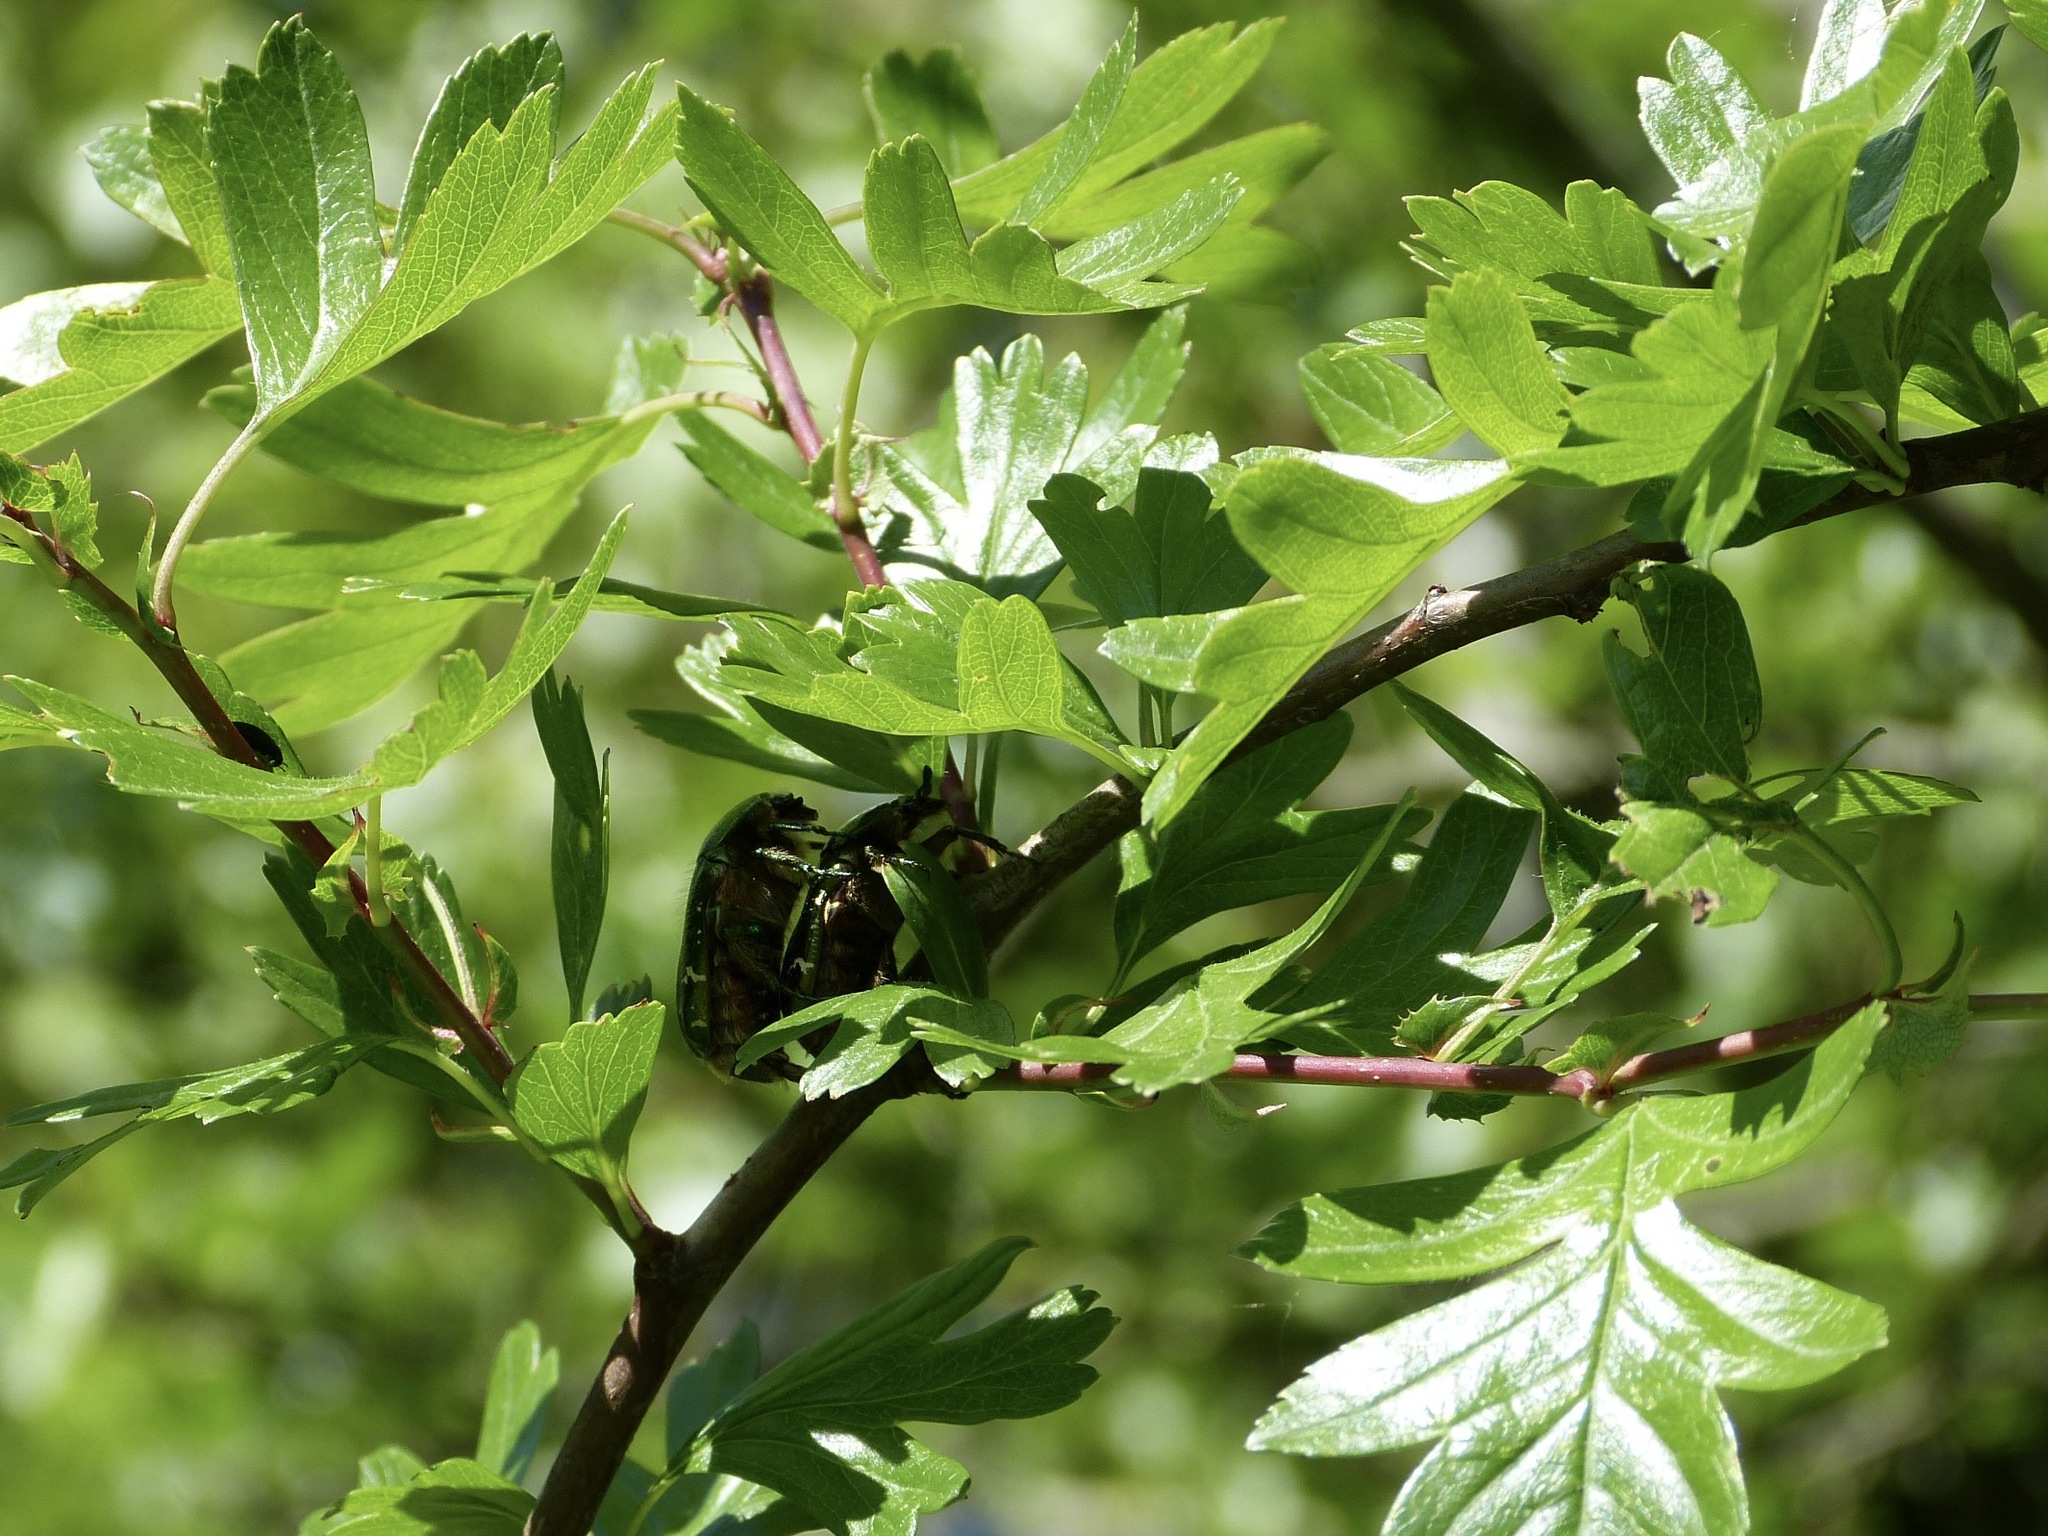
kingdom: Animalia
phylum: Arthropoda
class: Insecta
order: Coleoptera
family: Scarabaeidae
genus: Cetonia
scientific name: Cetonia aurata
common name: Rose chafer
